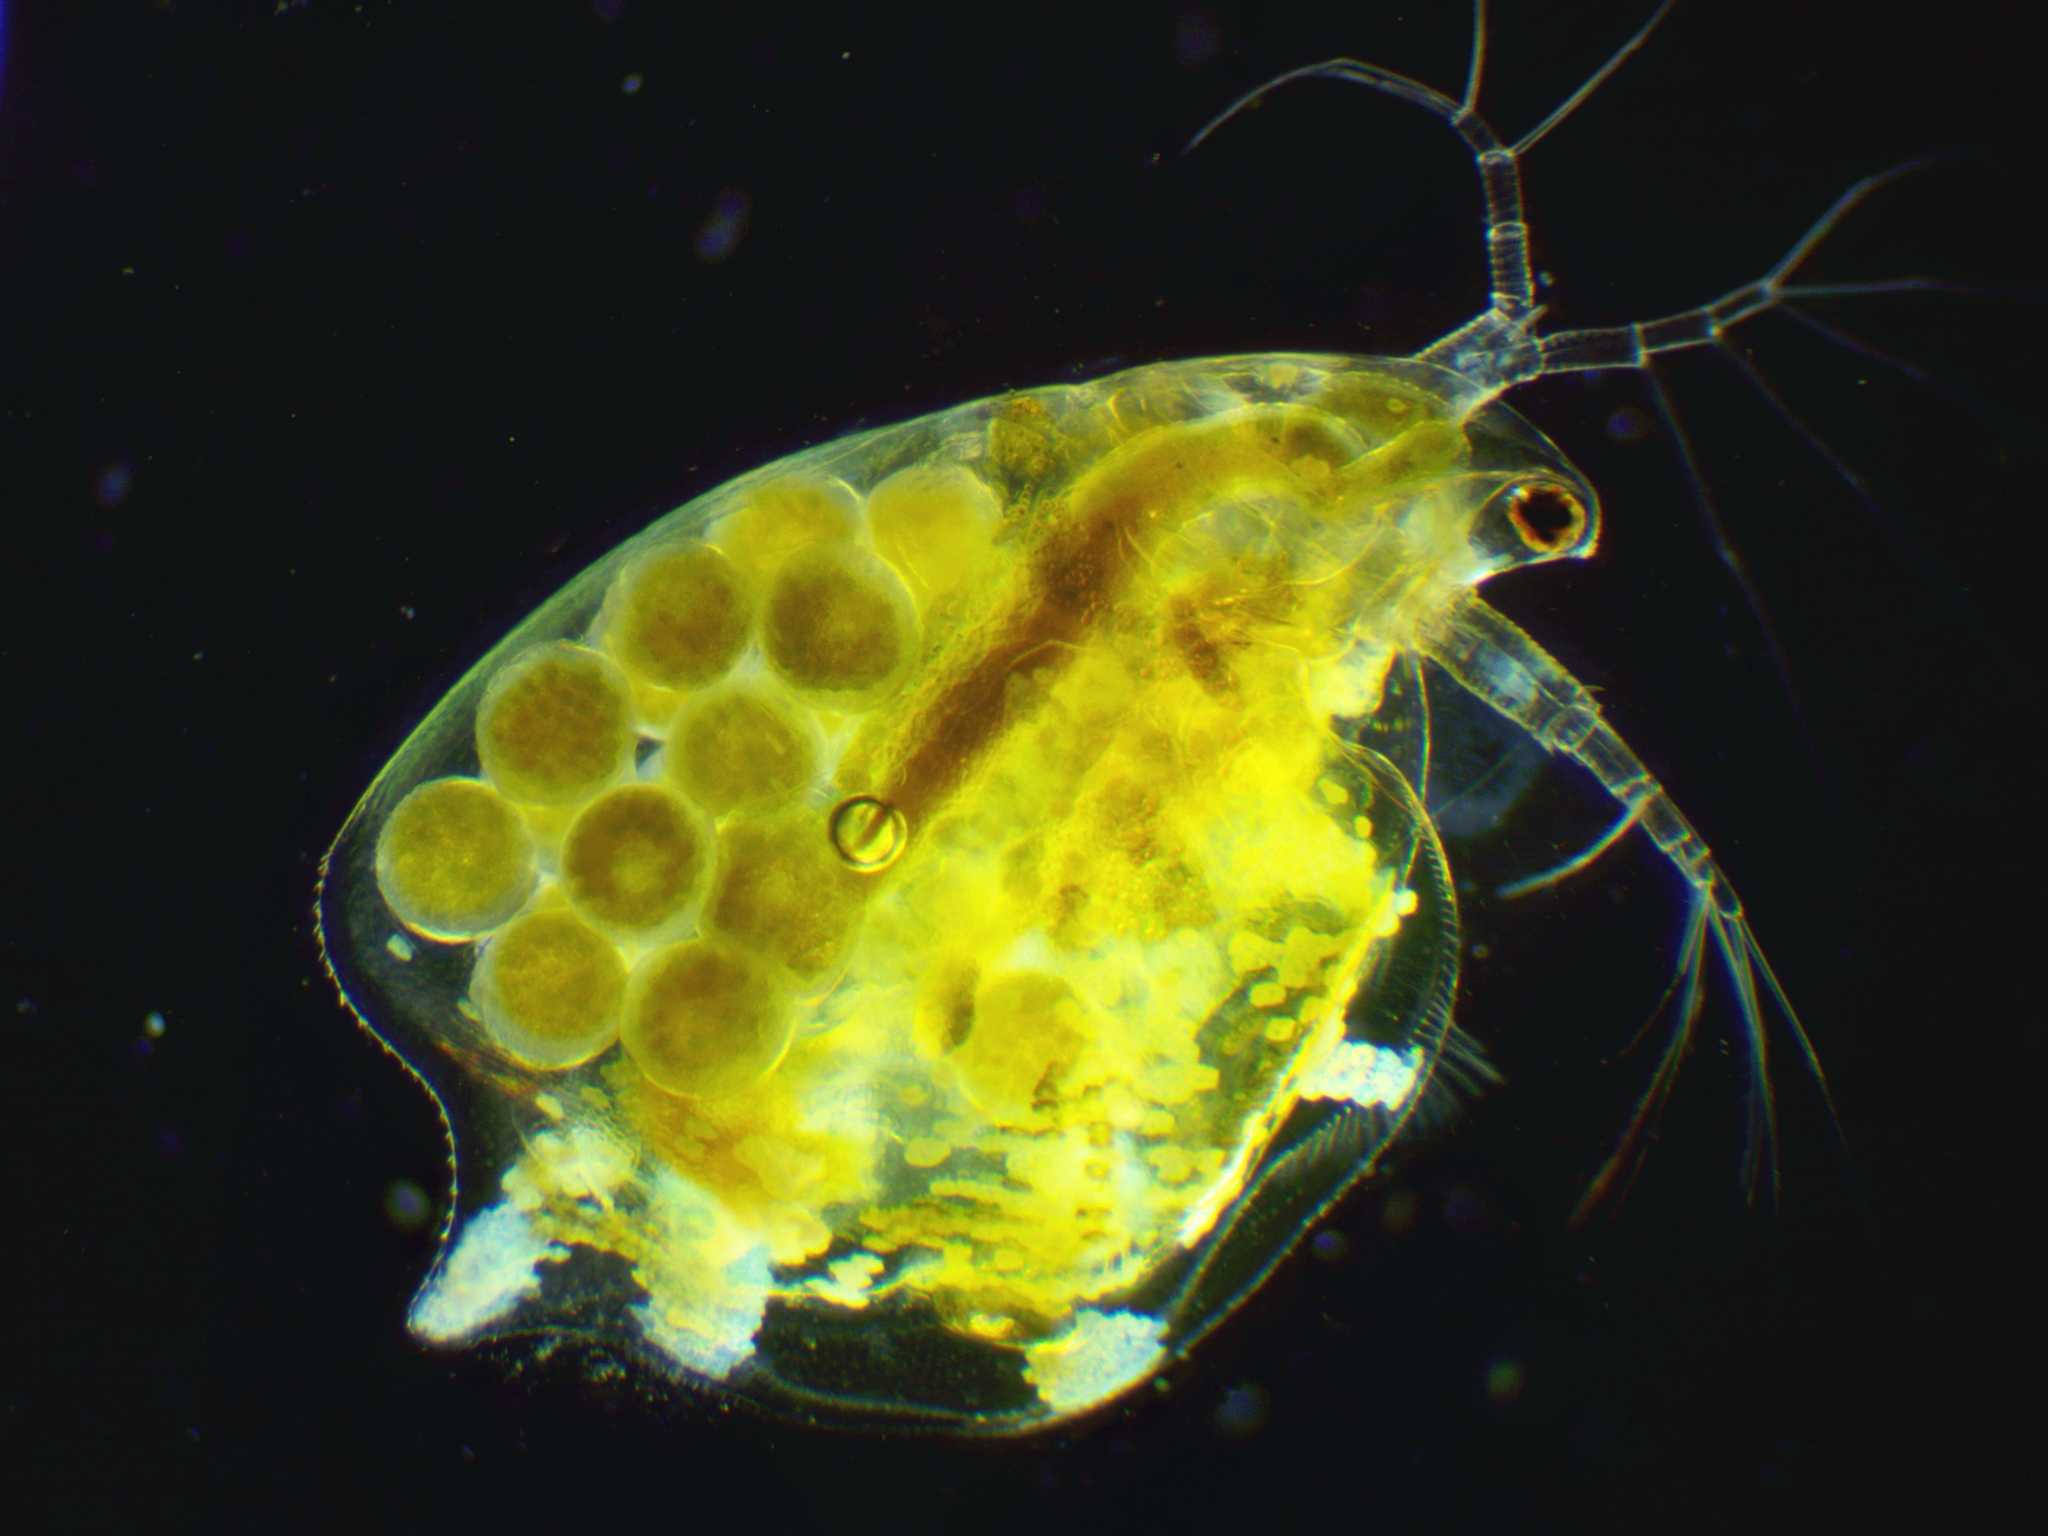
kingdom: Animalia
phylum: Arthropoda
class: Branchiopoda
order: Diplostraca
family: Daphniidae
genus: Simocephalus
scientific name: Simocephalus serrulatus
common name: Water flea
